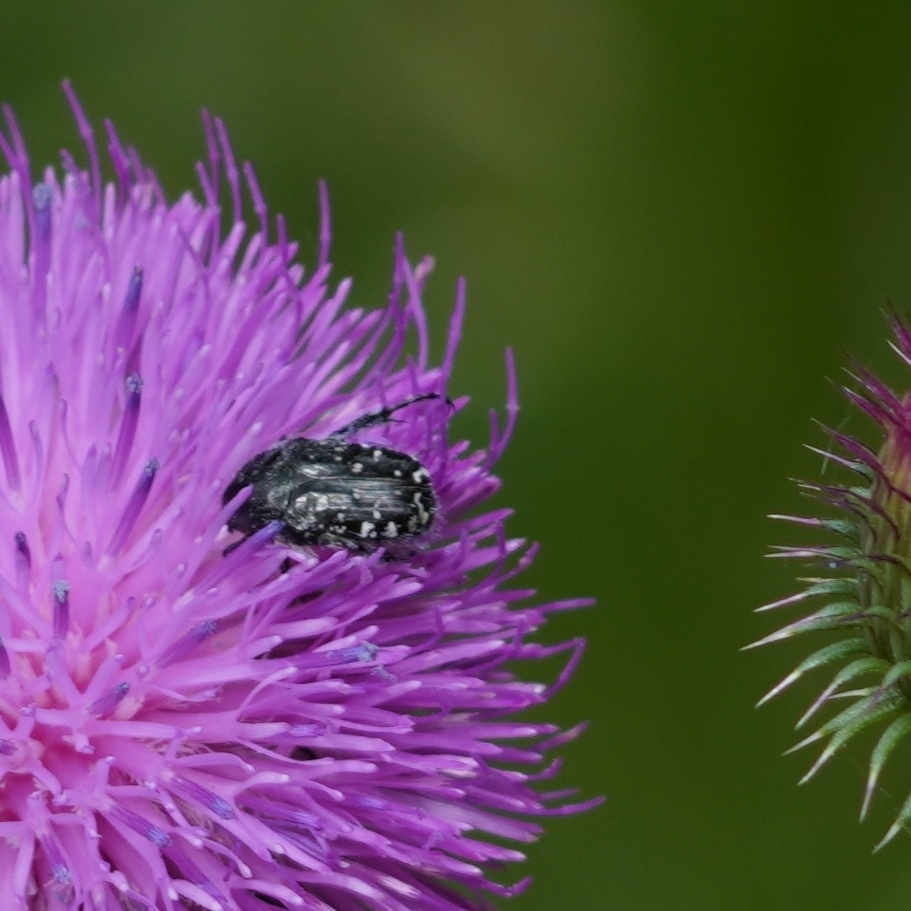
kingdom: Animalia
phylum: Arthropoda
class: Insecta
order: Coleoptera
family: Scarabaeidae
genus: Oxythyrea
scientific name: Oxythyrea funesta
